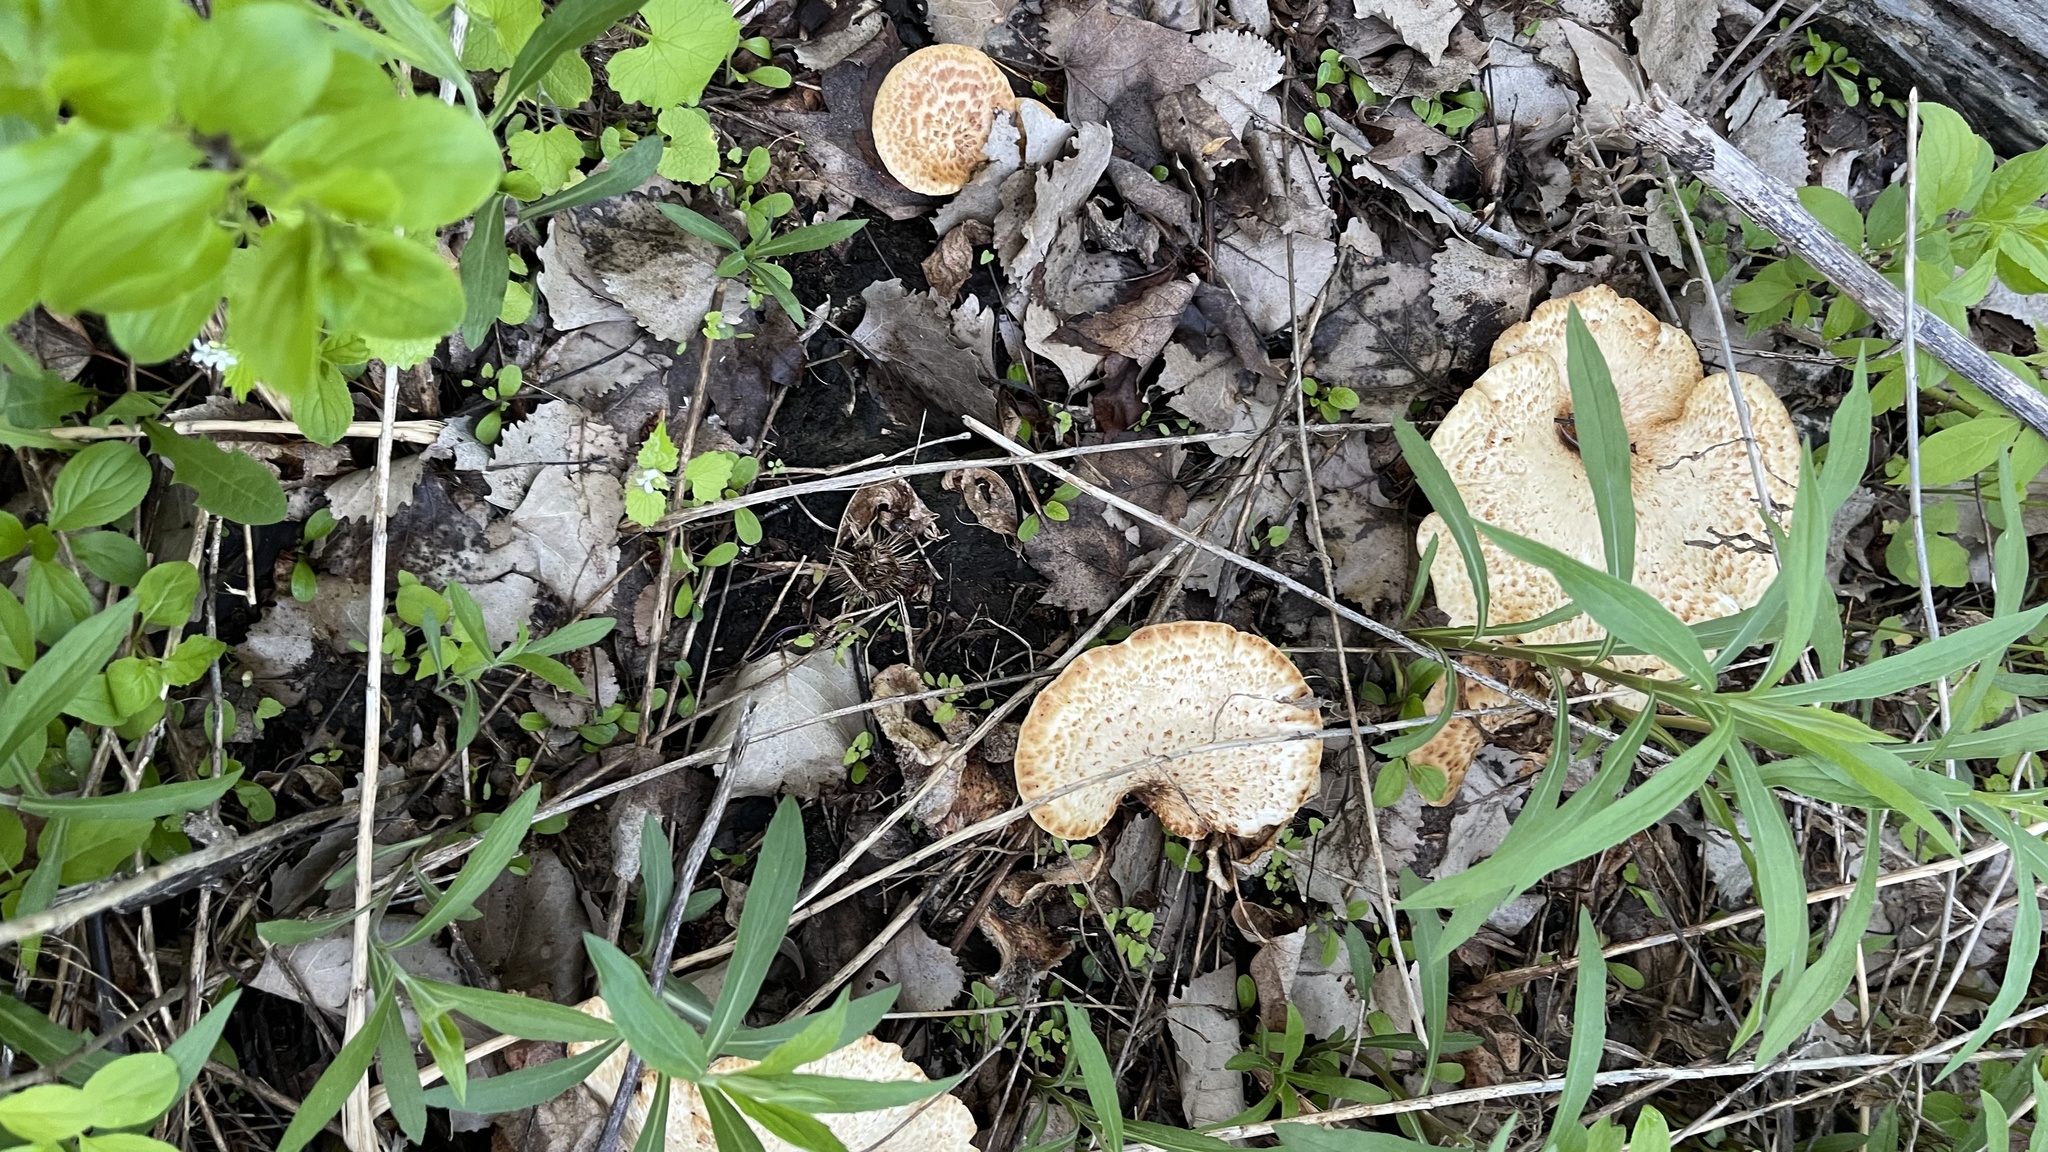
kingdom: Fungi
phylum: Basidiomycota
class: Agaricomycetes
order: Polyporales
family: Polyporaceae
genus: Cerioporus
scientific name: Cerioporus squamosus
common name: Dryad's saddle
